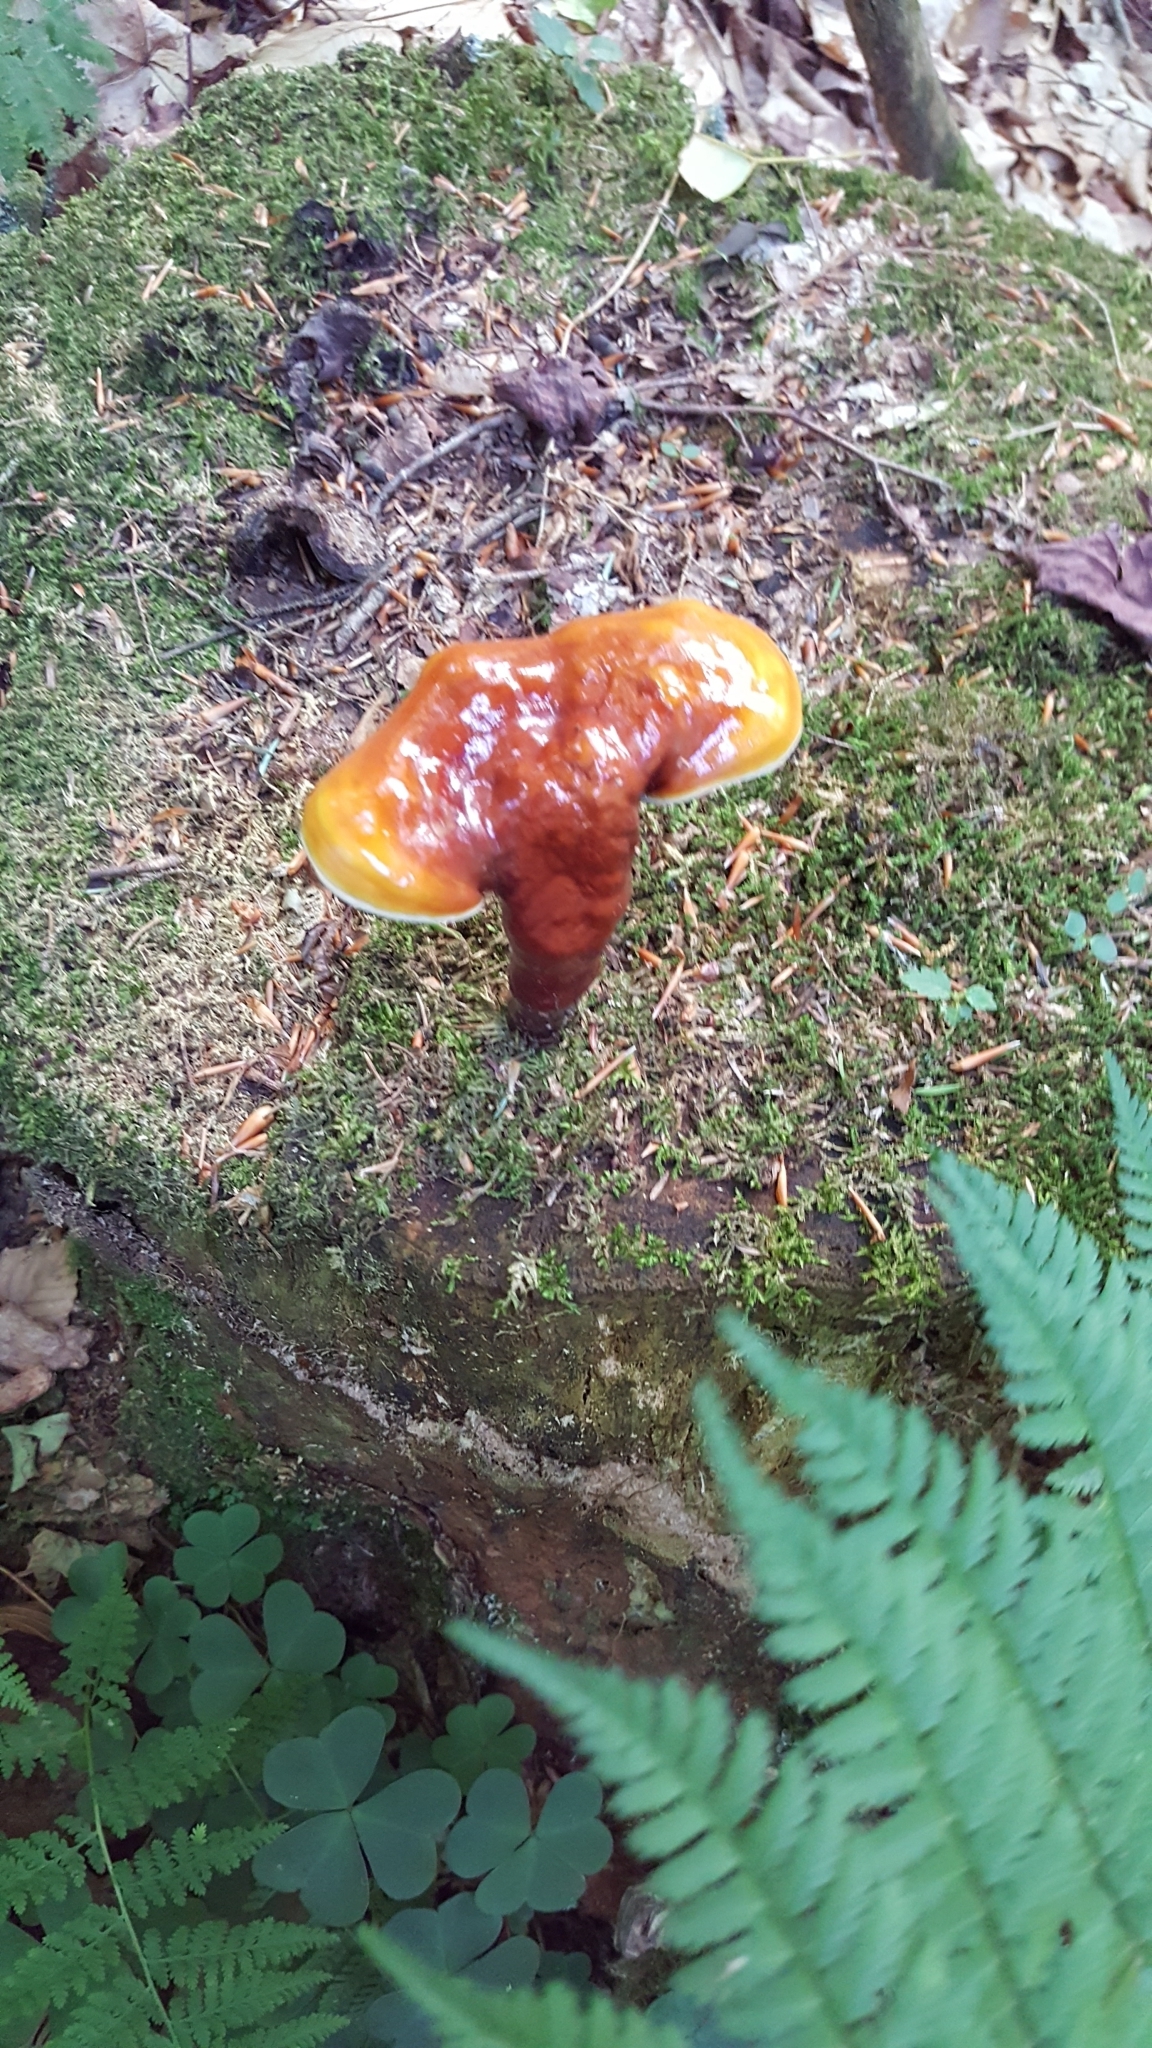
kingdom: Fungi
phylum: Basidiomycota
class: Agaricomycetes
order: Polyporales
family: Polyporaceae
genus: Ganoderma
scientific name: Ganoderma tsugae
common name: Hemlock varnish shelf
